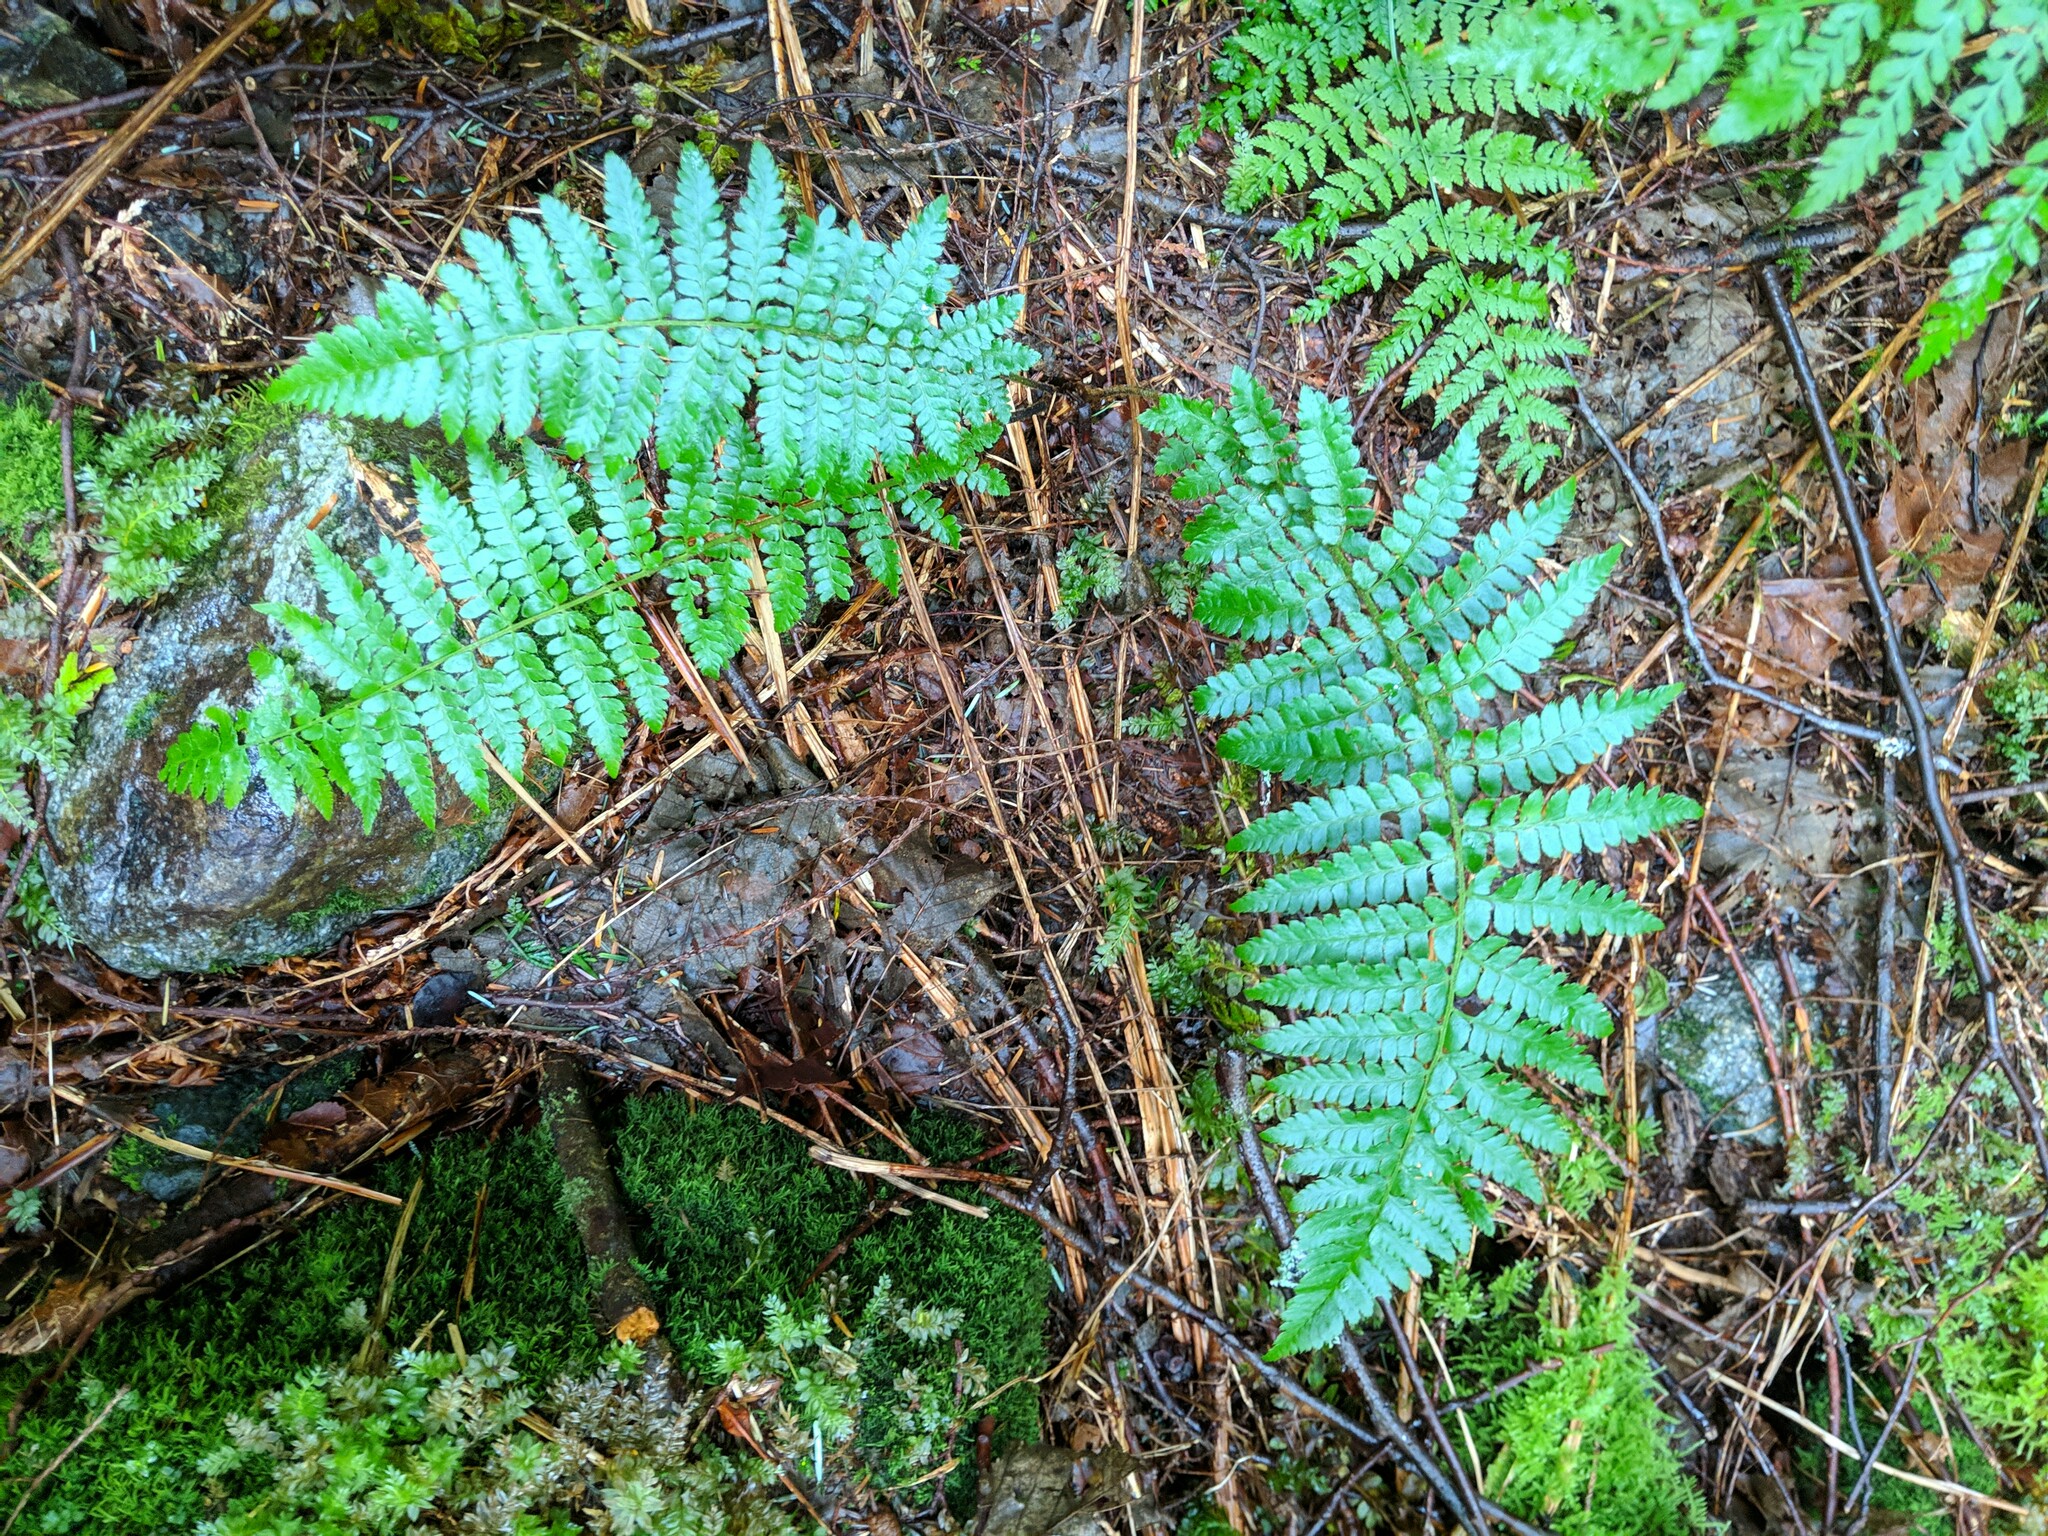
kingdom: Plantae
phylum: Tracheophyta
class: Polypodiopsida
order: Polypodiales
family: Dryopteridaceae
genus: Polystichum
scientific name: Polystichum braunii
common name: Braun's holly fern
